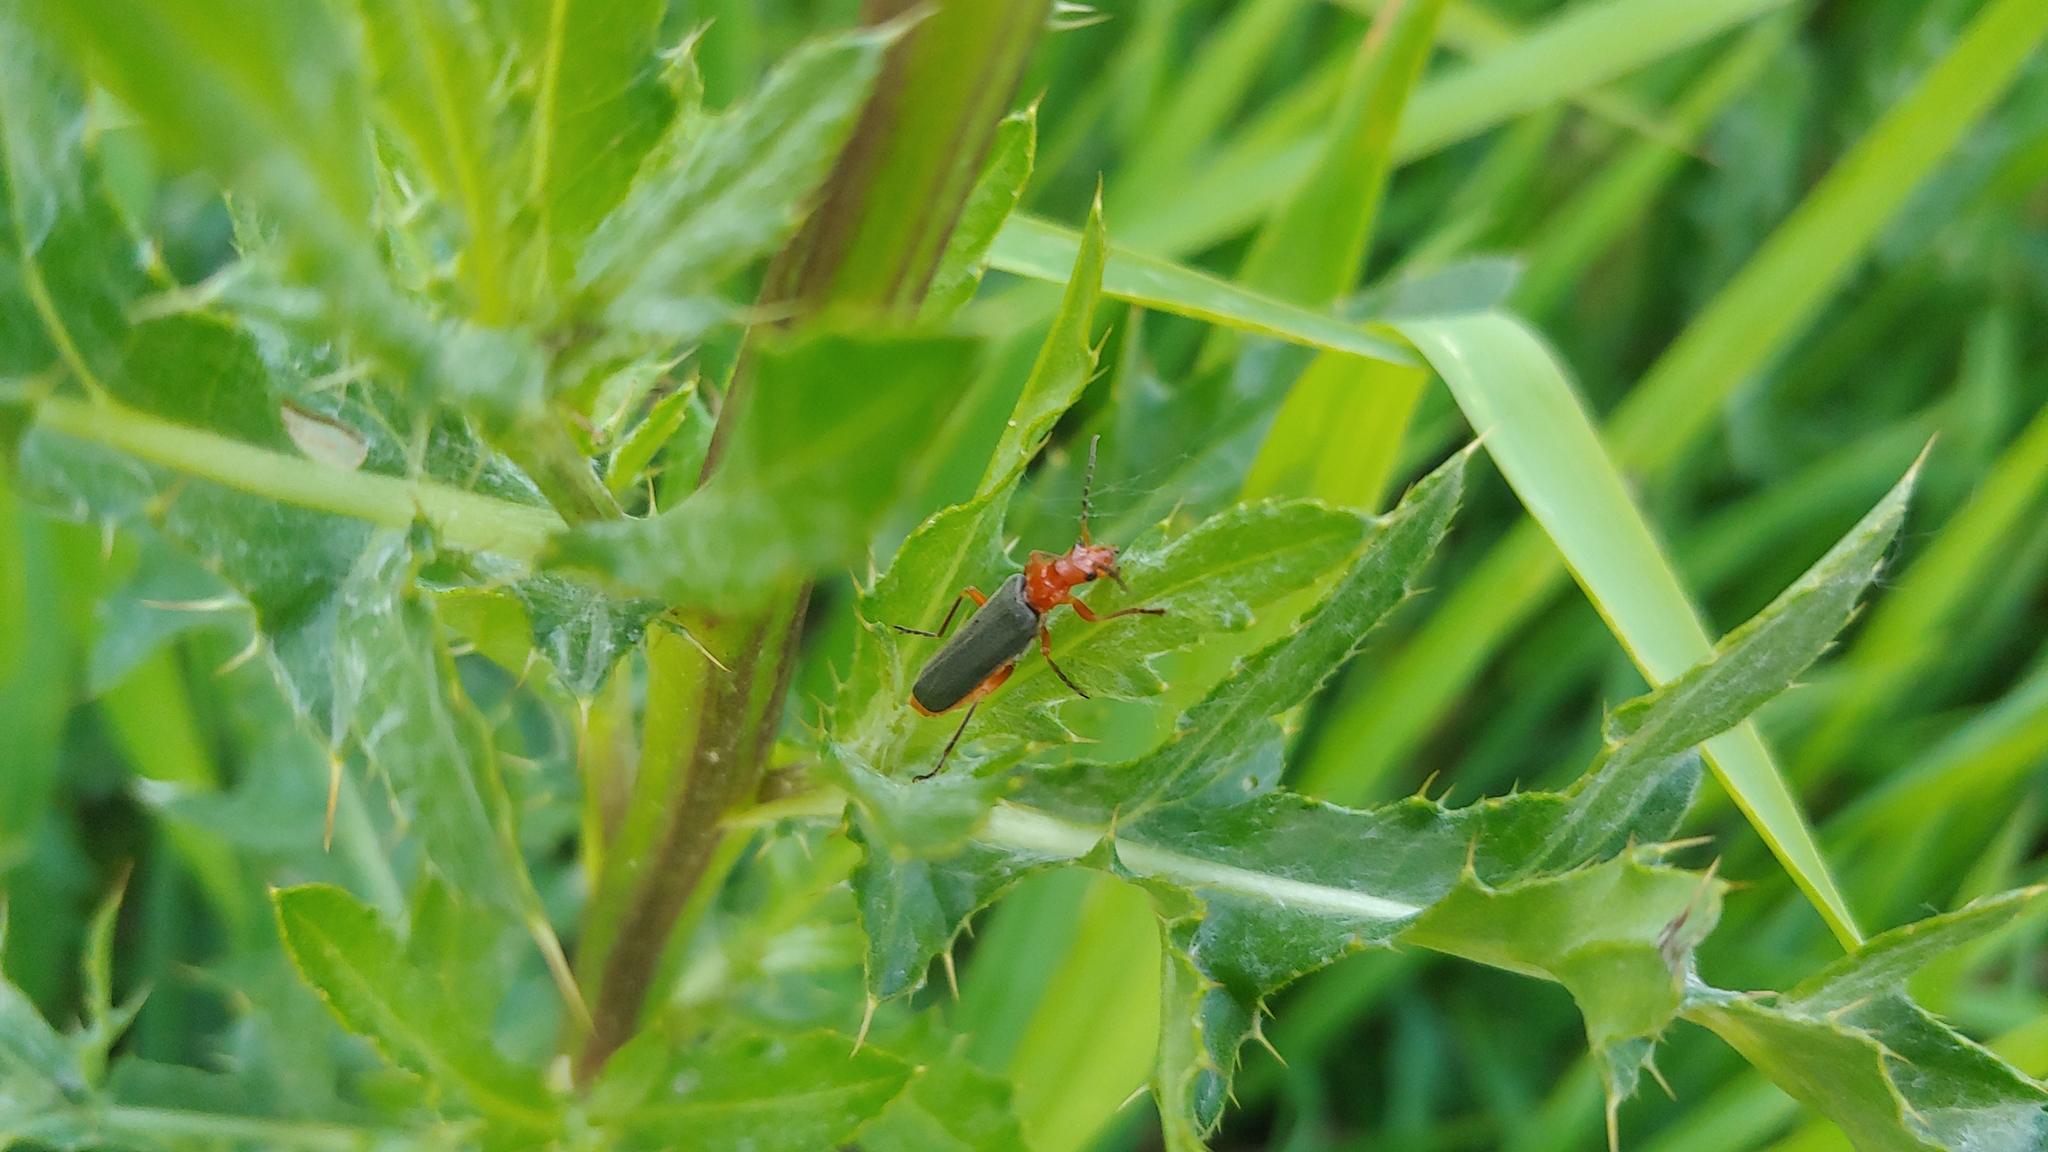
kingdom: Animalia
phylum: Arthropoda
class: Insecta
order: Coleoptera
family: Cantharidae
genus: Podabrus
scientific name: Podabrus tomentosus
